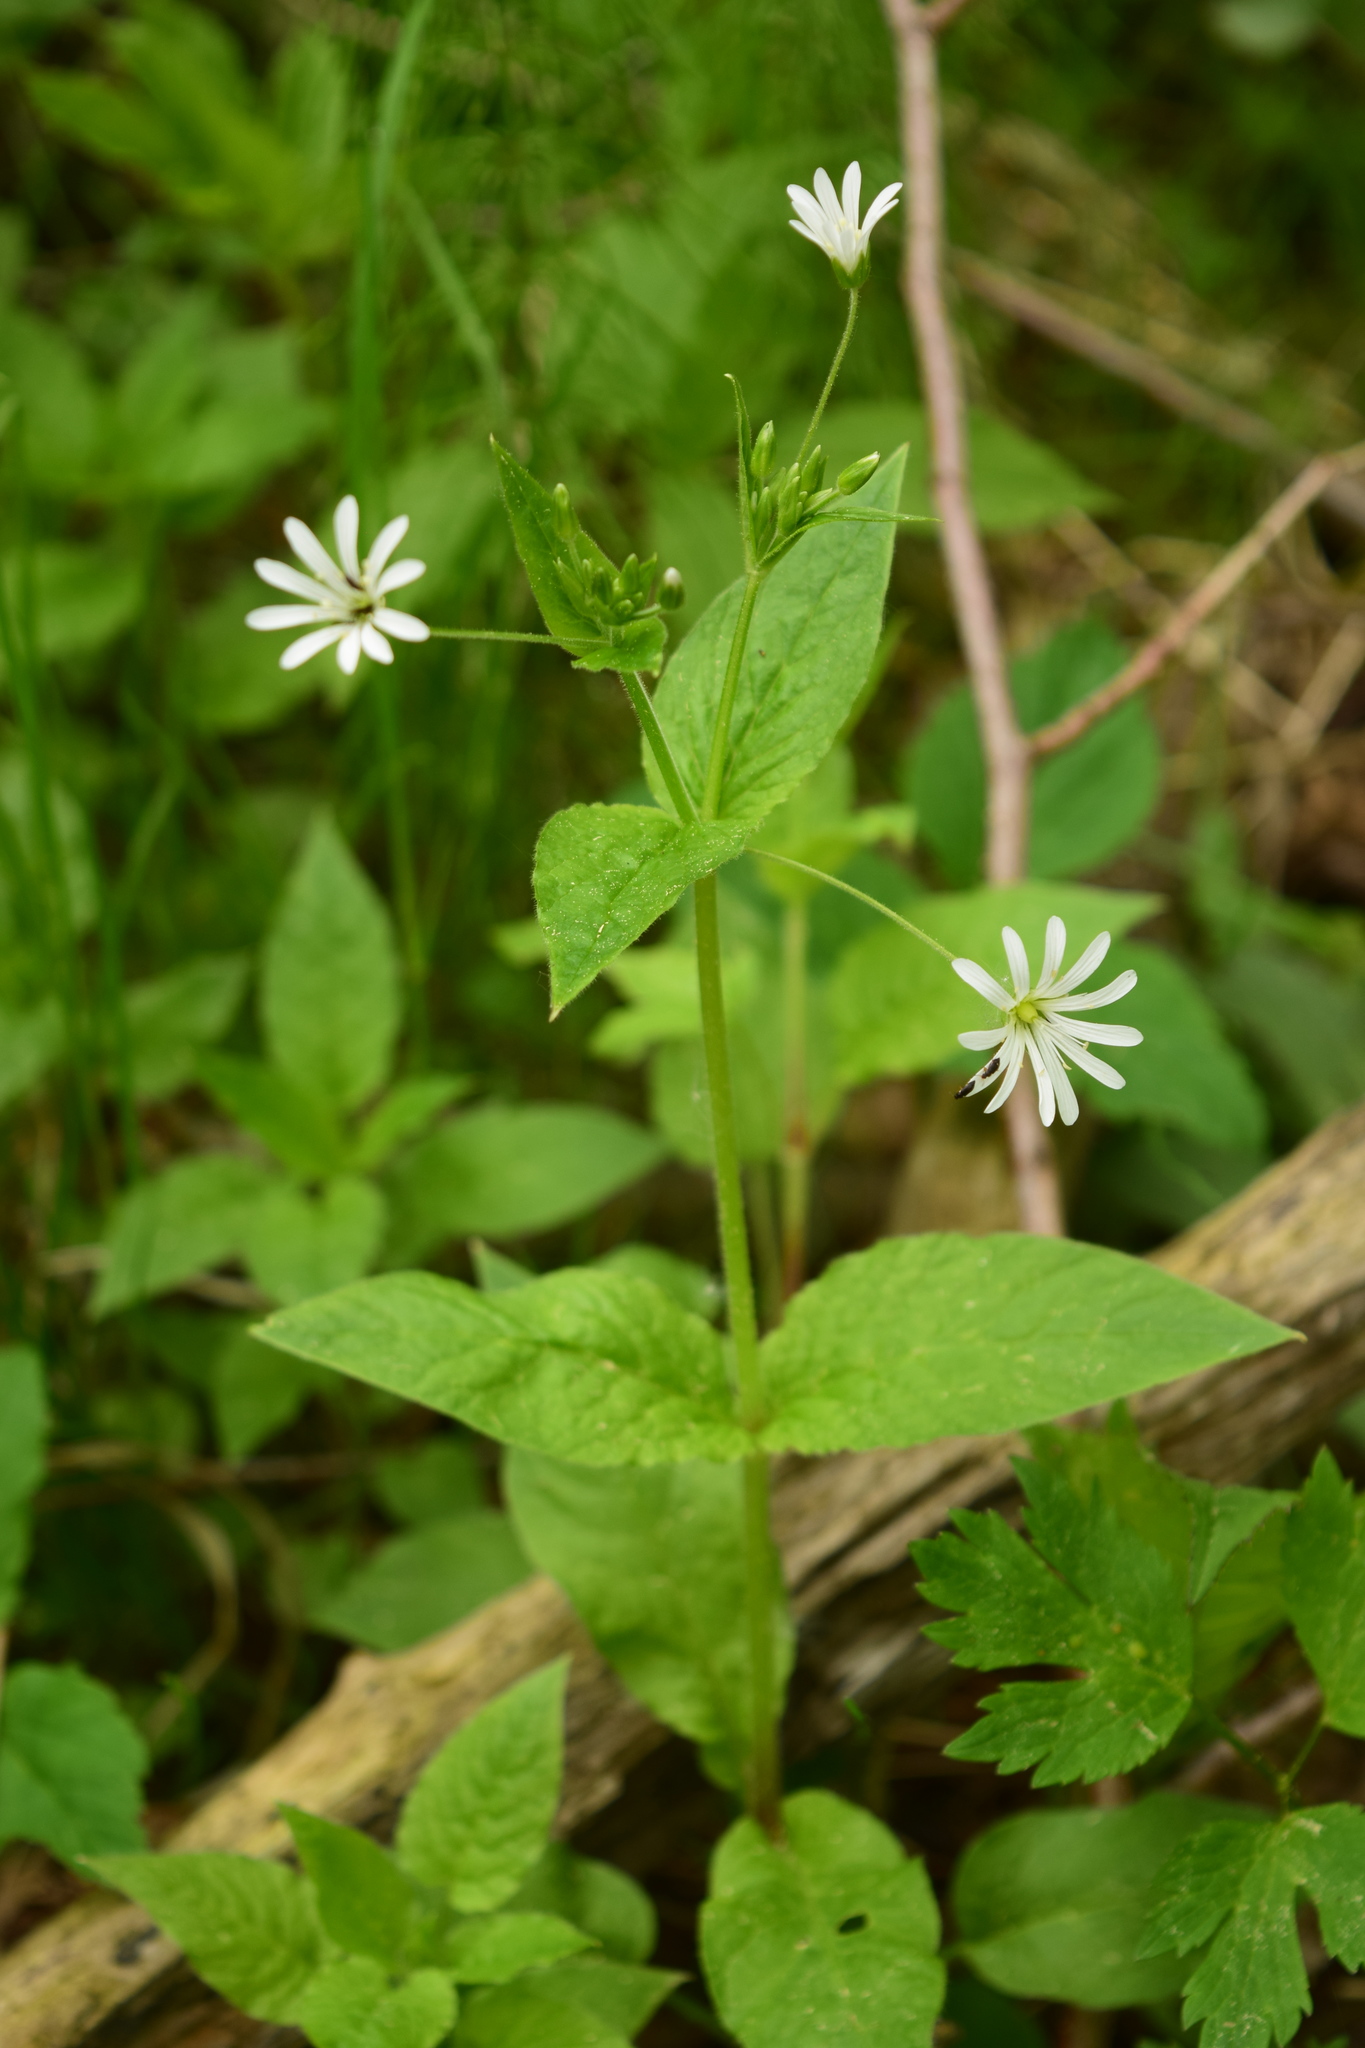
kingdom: Plantae
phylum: Tracheophyta
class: Magnoliopsida
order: Caryophyllales
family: Caryophyllaceae
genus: Stellaria
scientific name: Stellaria nemorum
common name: Wood stitchwort
